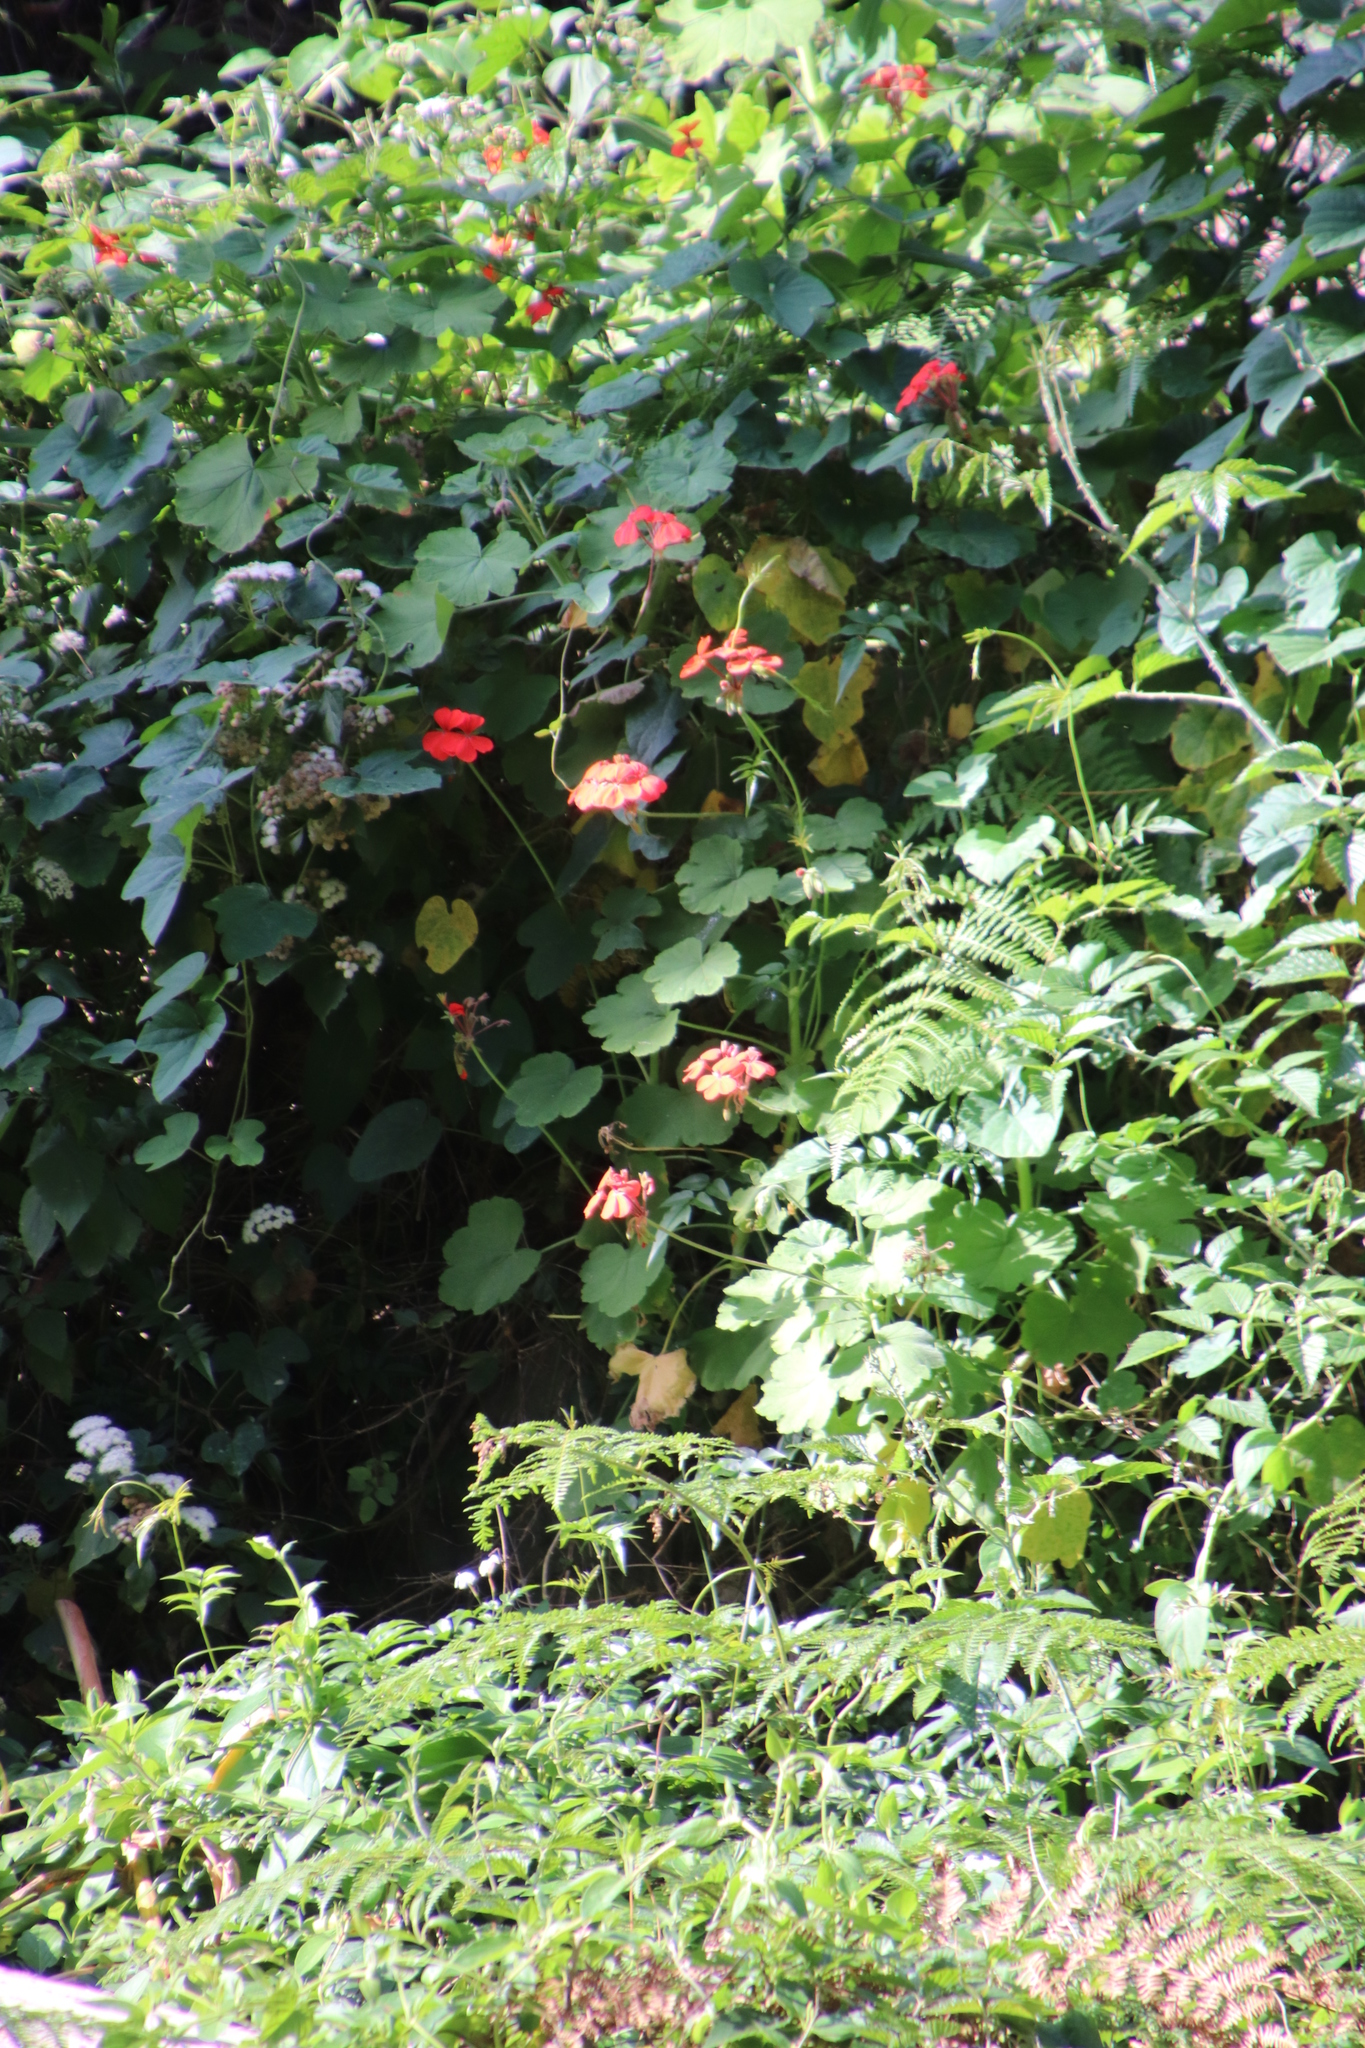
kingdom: Plantae
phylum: Tracheophyta
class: Magnoliopsida
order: Geraniales
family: Geraniaceae
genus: Pelargonium
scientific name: Pelargonium hybridum
